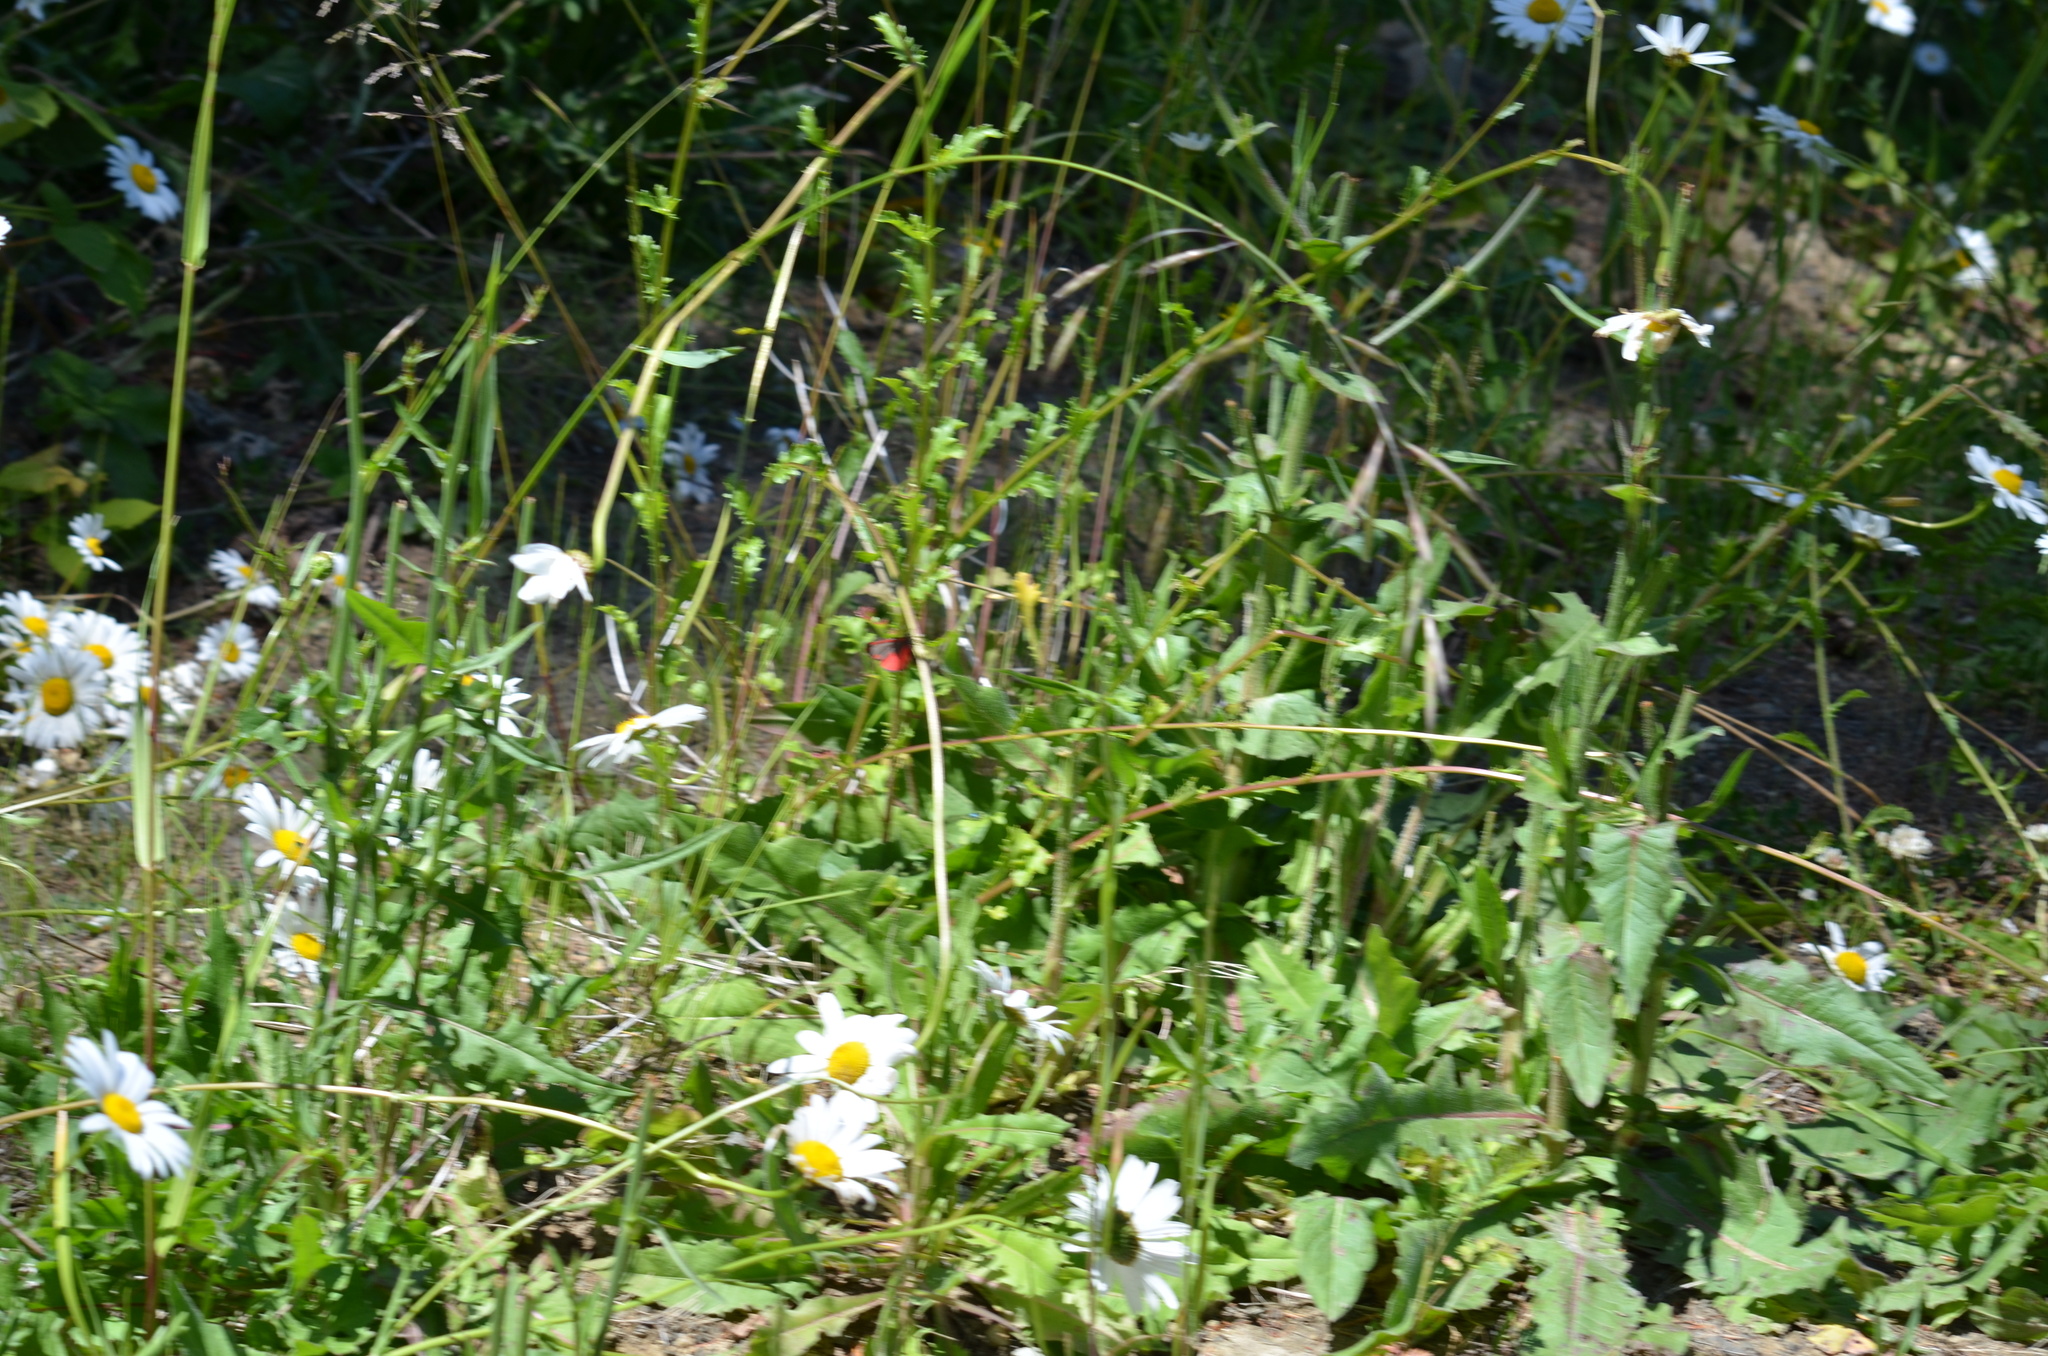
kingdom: Animalia
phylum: Arthropoda
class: Insecta
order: Lepidoptera
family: Erebidae
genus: Tyria
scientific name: Tyria jacobaeae
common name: Cinnabar
